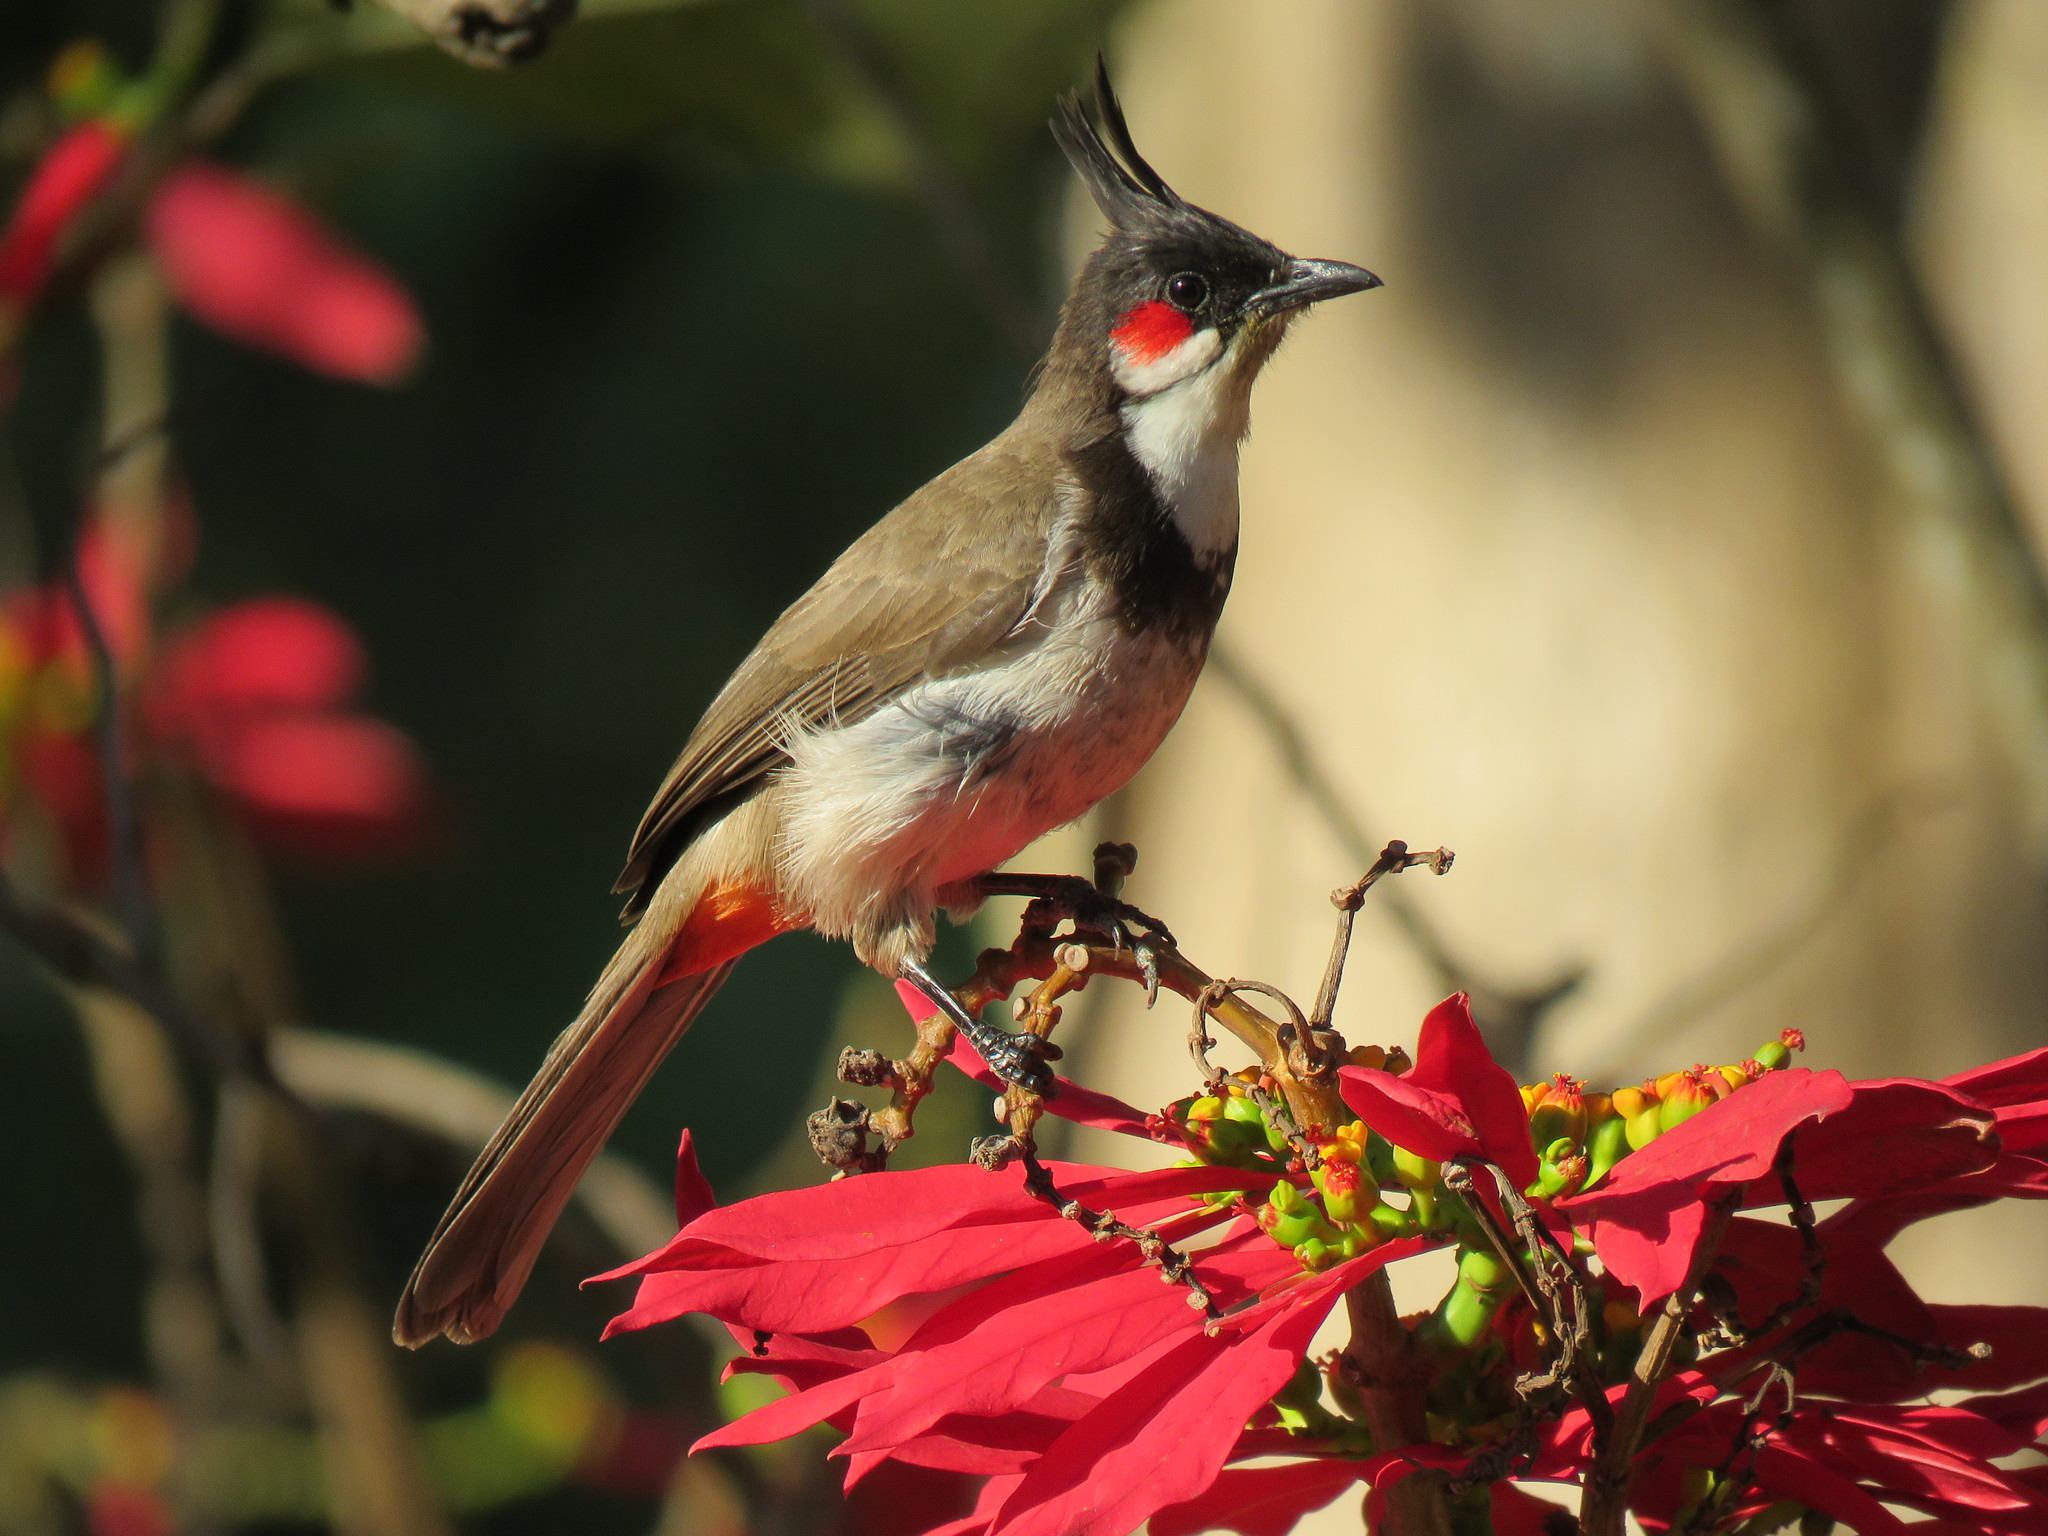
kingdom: Animalia
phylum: Chordata
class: Aves
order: Passeriformes
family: Pycnonotidae
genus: Pycnonotus
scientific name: Pycnonotus jocosus
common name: Red-whiskered bulbul
